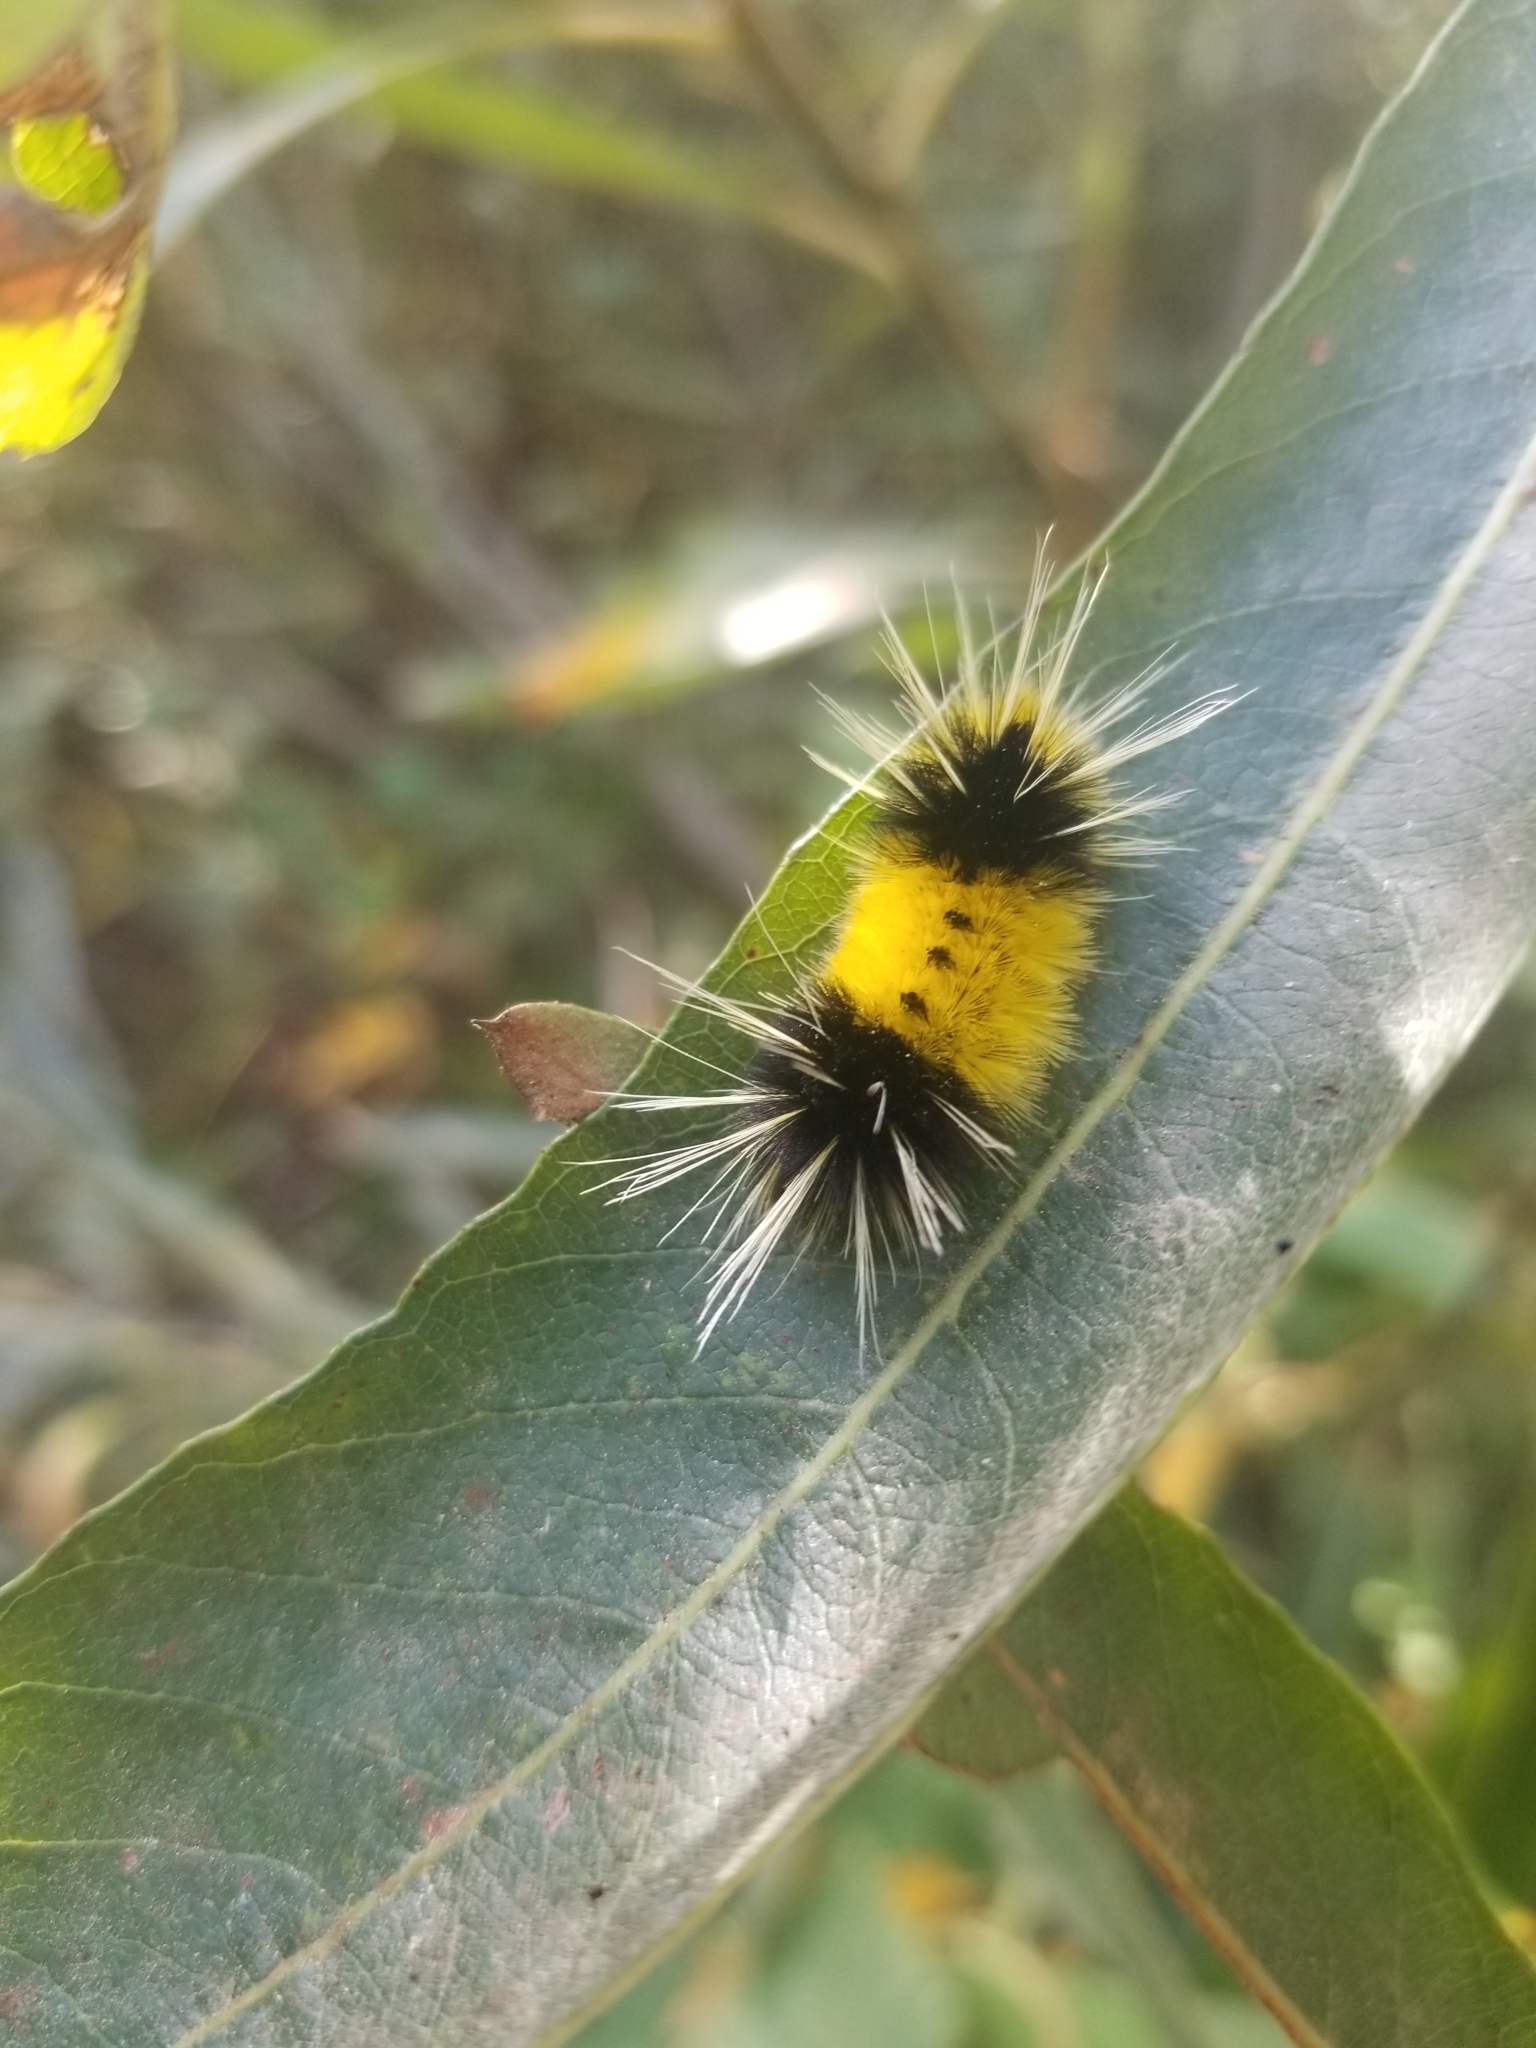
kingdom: Animalia
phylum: Arthropoda
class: Insecta
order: Lepidoptera
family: Erebidae
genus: Lophocampa
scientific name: Lophocampa maculata
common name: Spotted tussock moth
